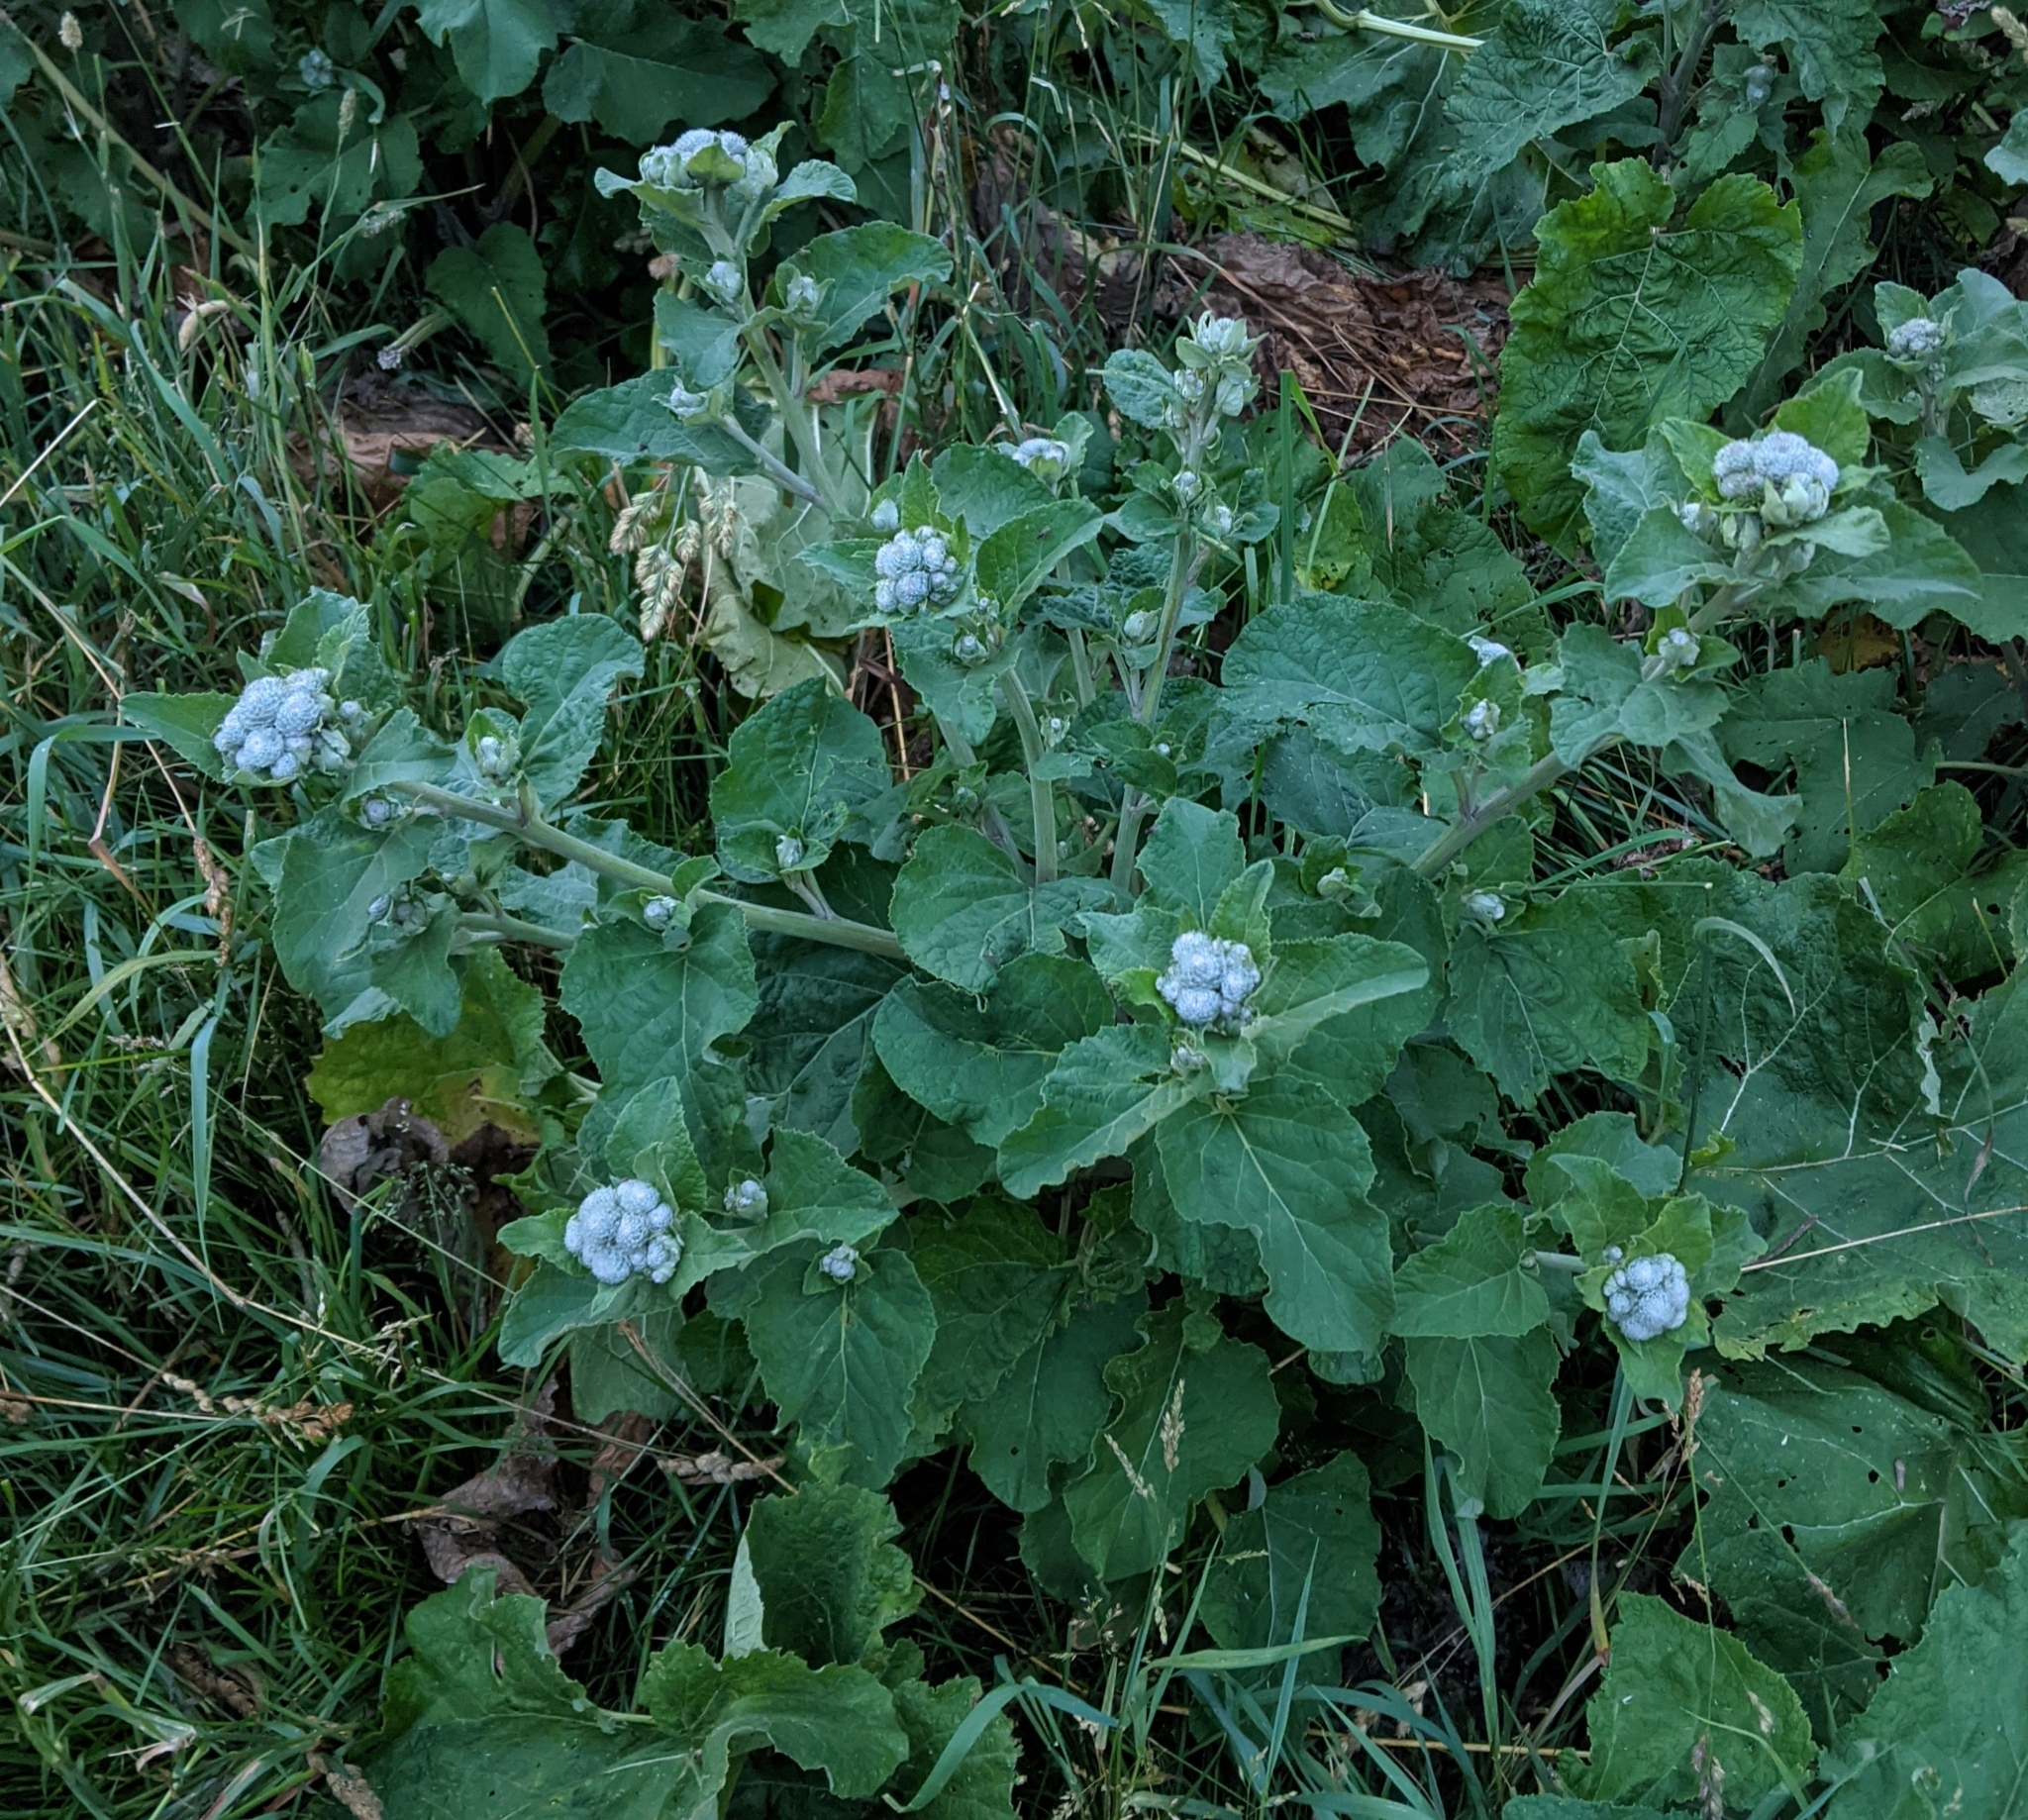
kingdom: Plantae
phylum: Tracheophyta
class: Magnoliopsida
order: Asterales
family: Asteraceae
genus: Arctium
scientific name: Arctium tomentosum
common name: Woolly burdock
